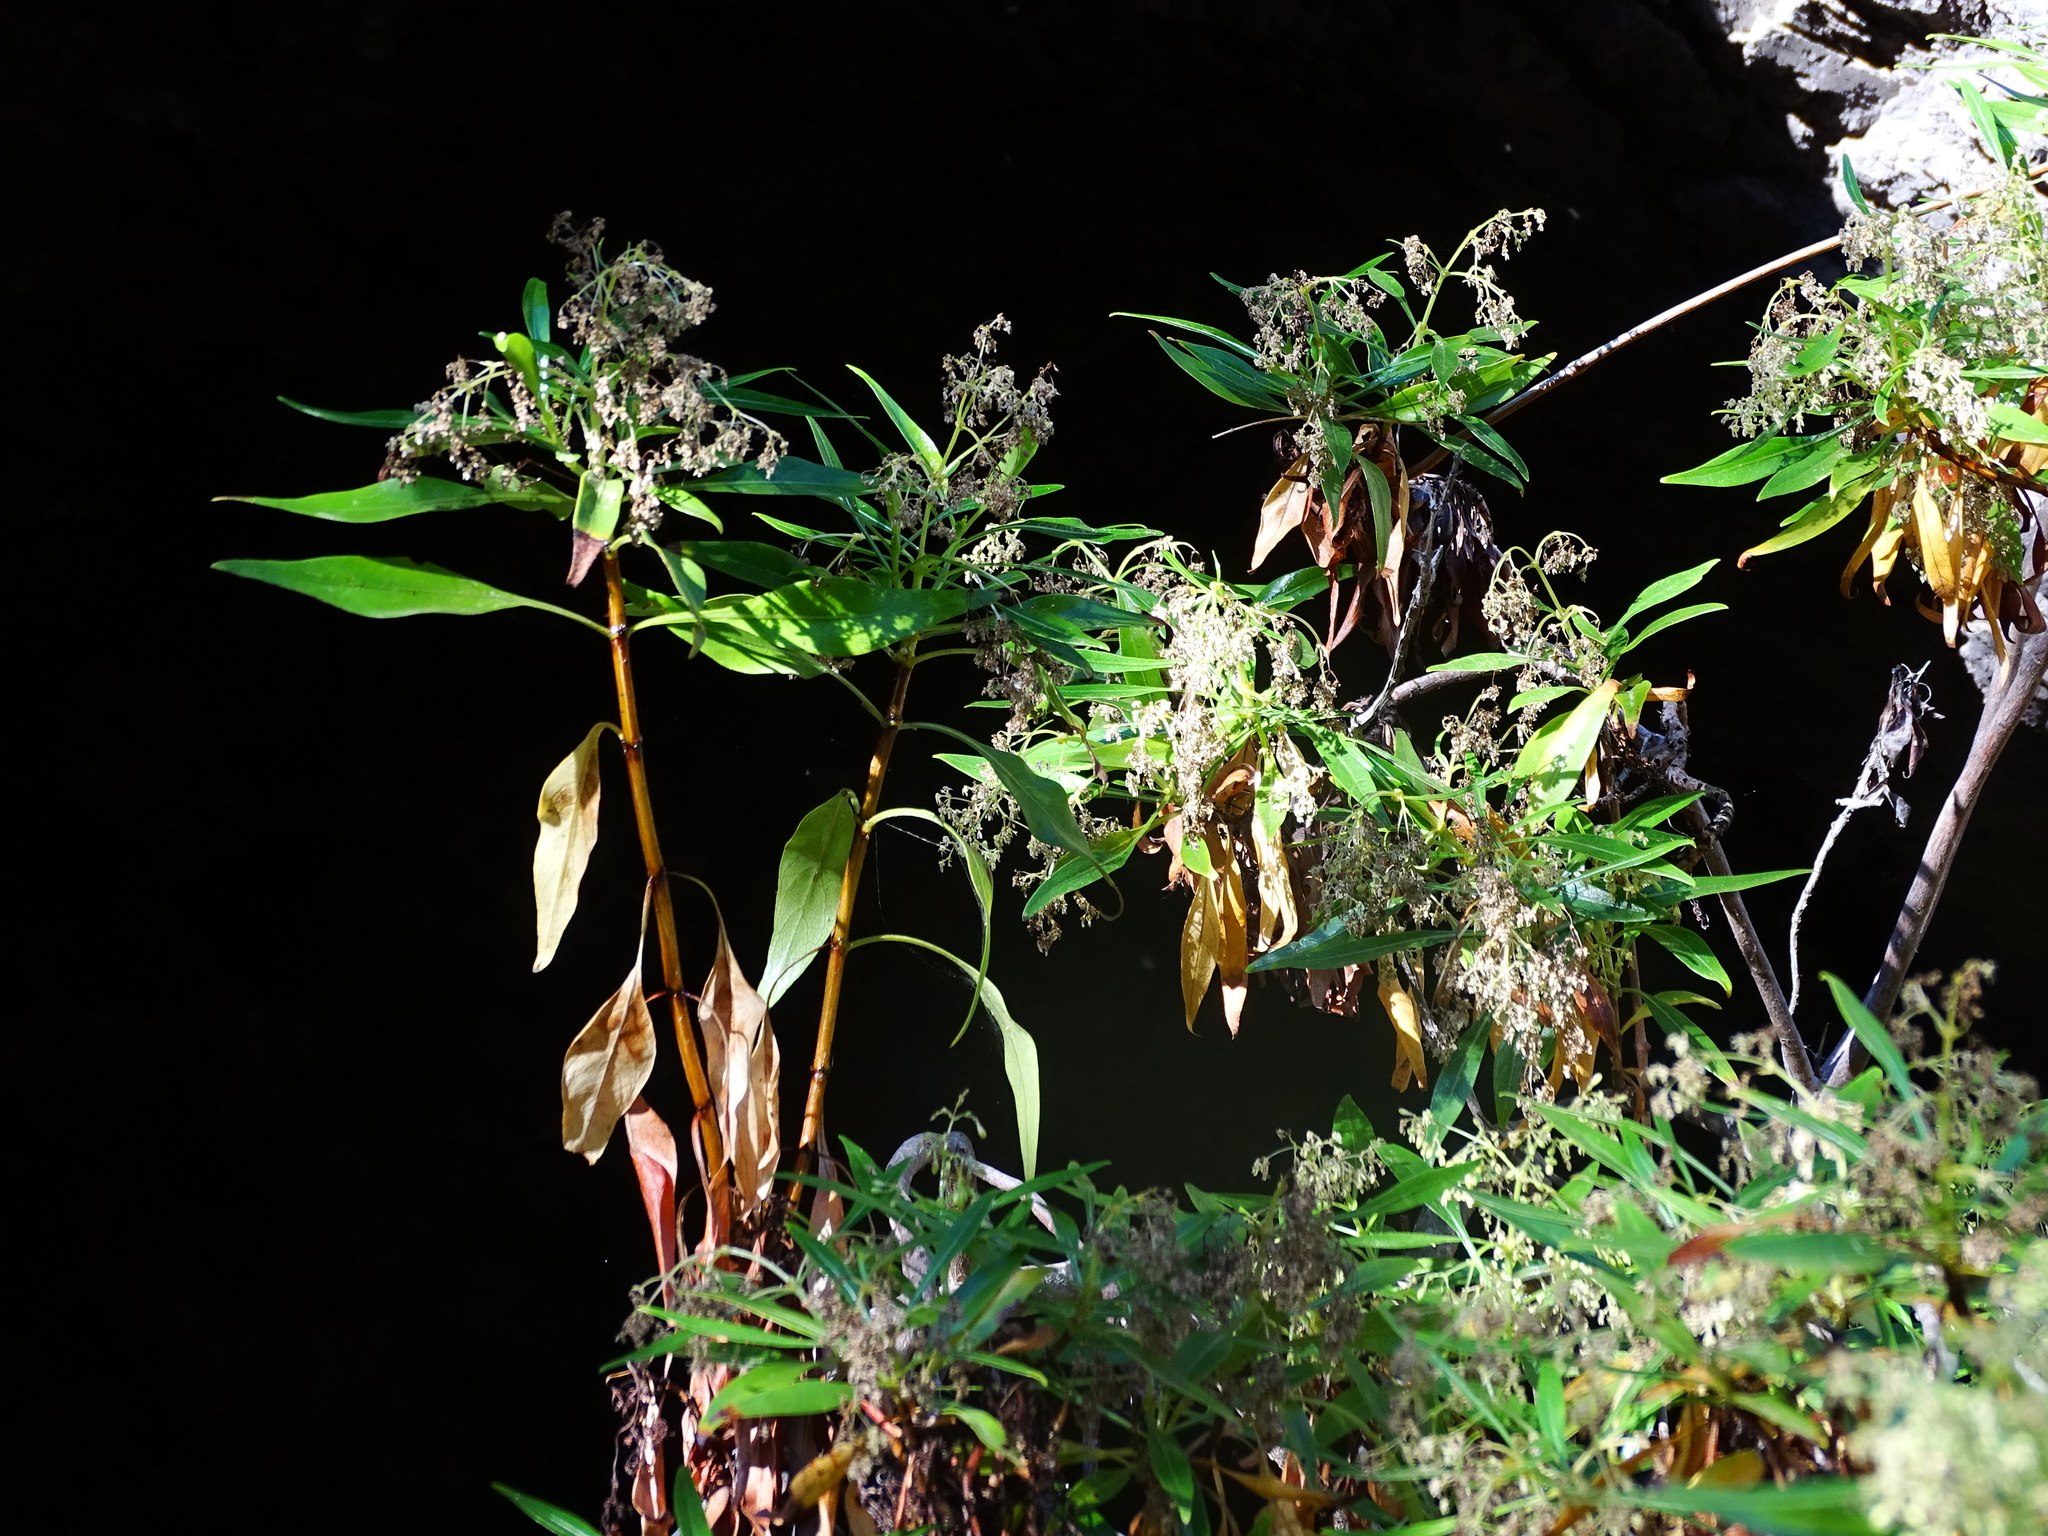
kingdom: Plantae
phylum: Tracheophyta
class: Magnoliopsida
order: Gentianales
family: Rubiaceae
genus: Phyllis
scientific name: Phyllis viscosa
